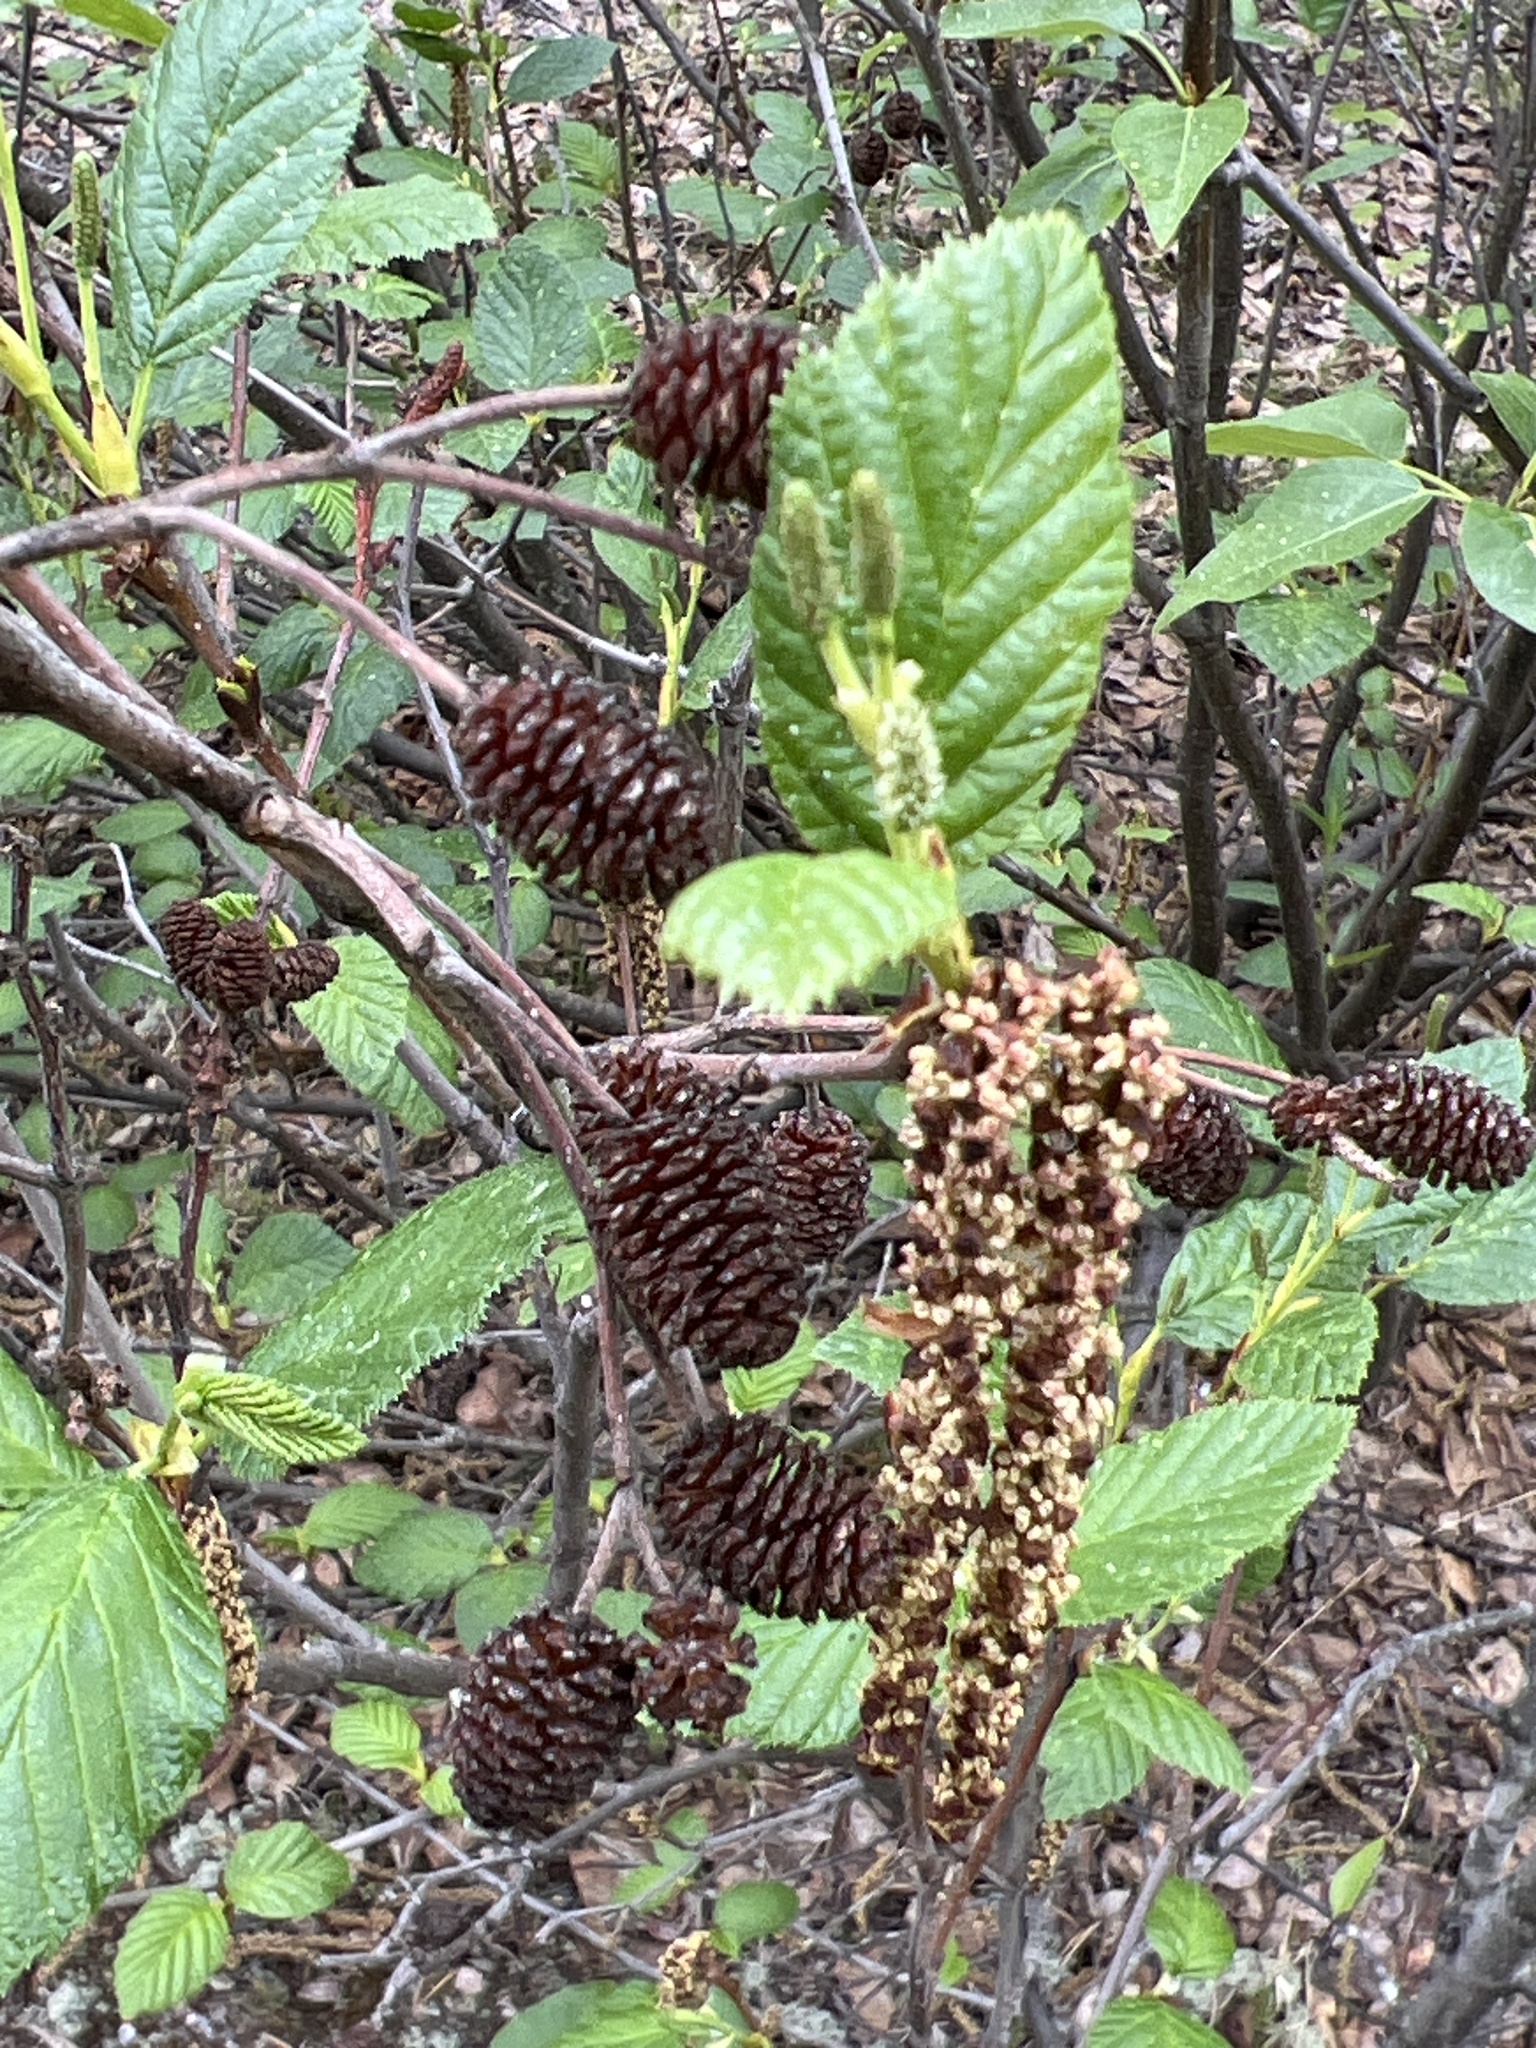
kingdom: Plantae
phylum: Tracheophyta
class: Magnoliopsida
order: Fagales
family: Betulaceae
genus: Alnus
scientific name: Alnus alnobetula
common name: Green alder
